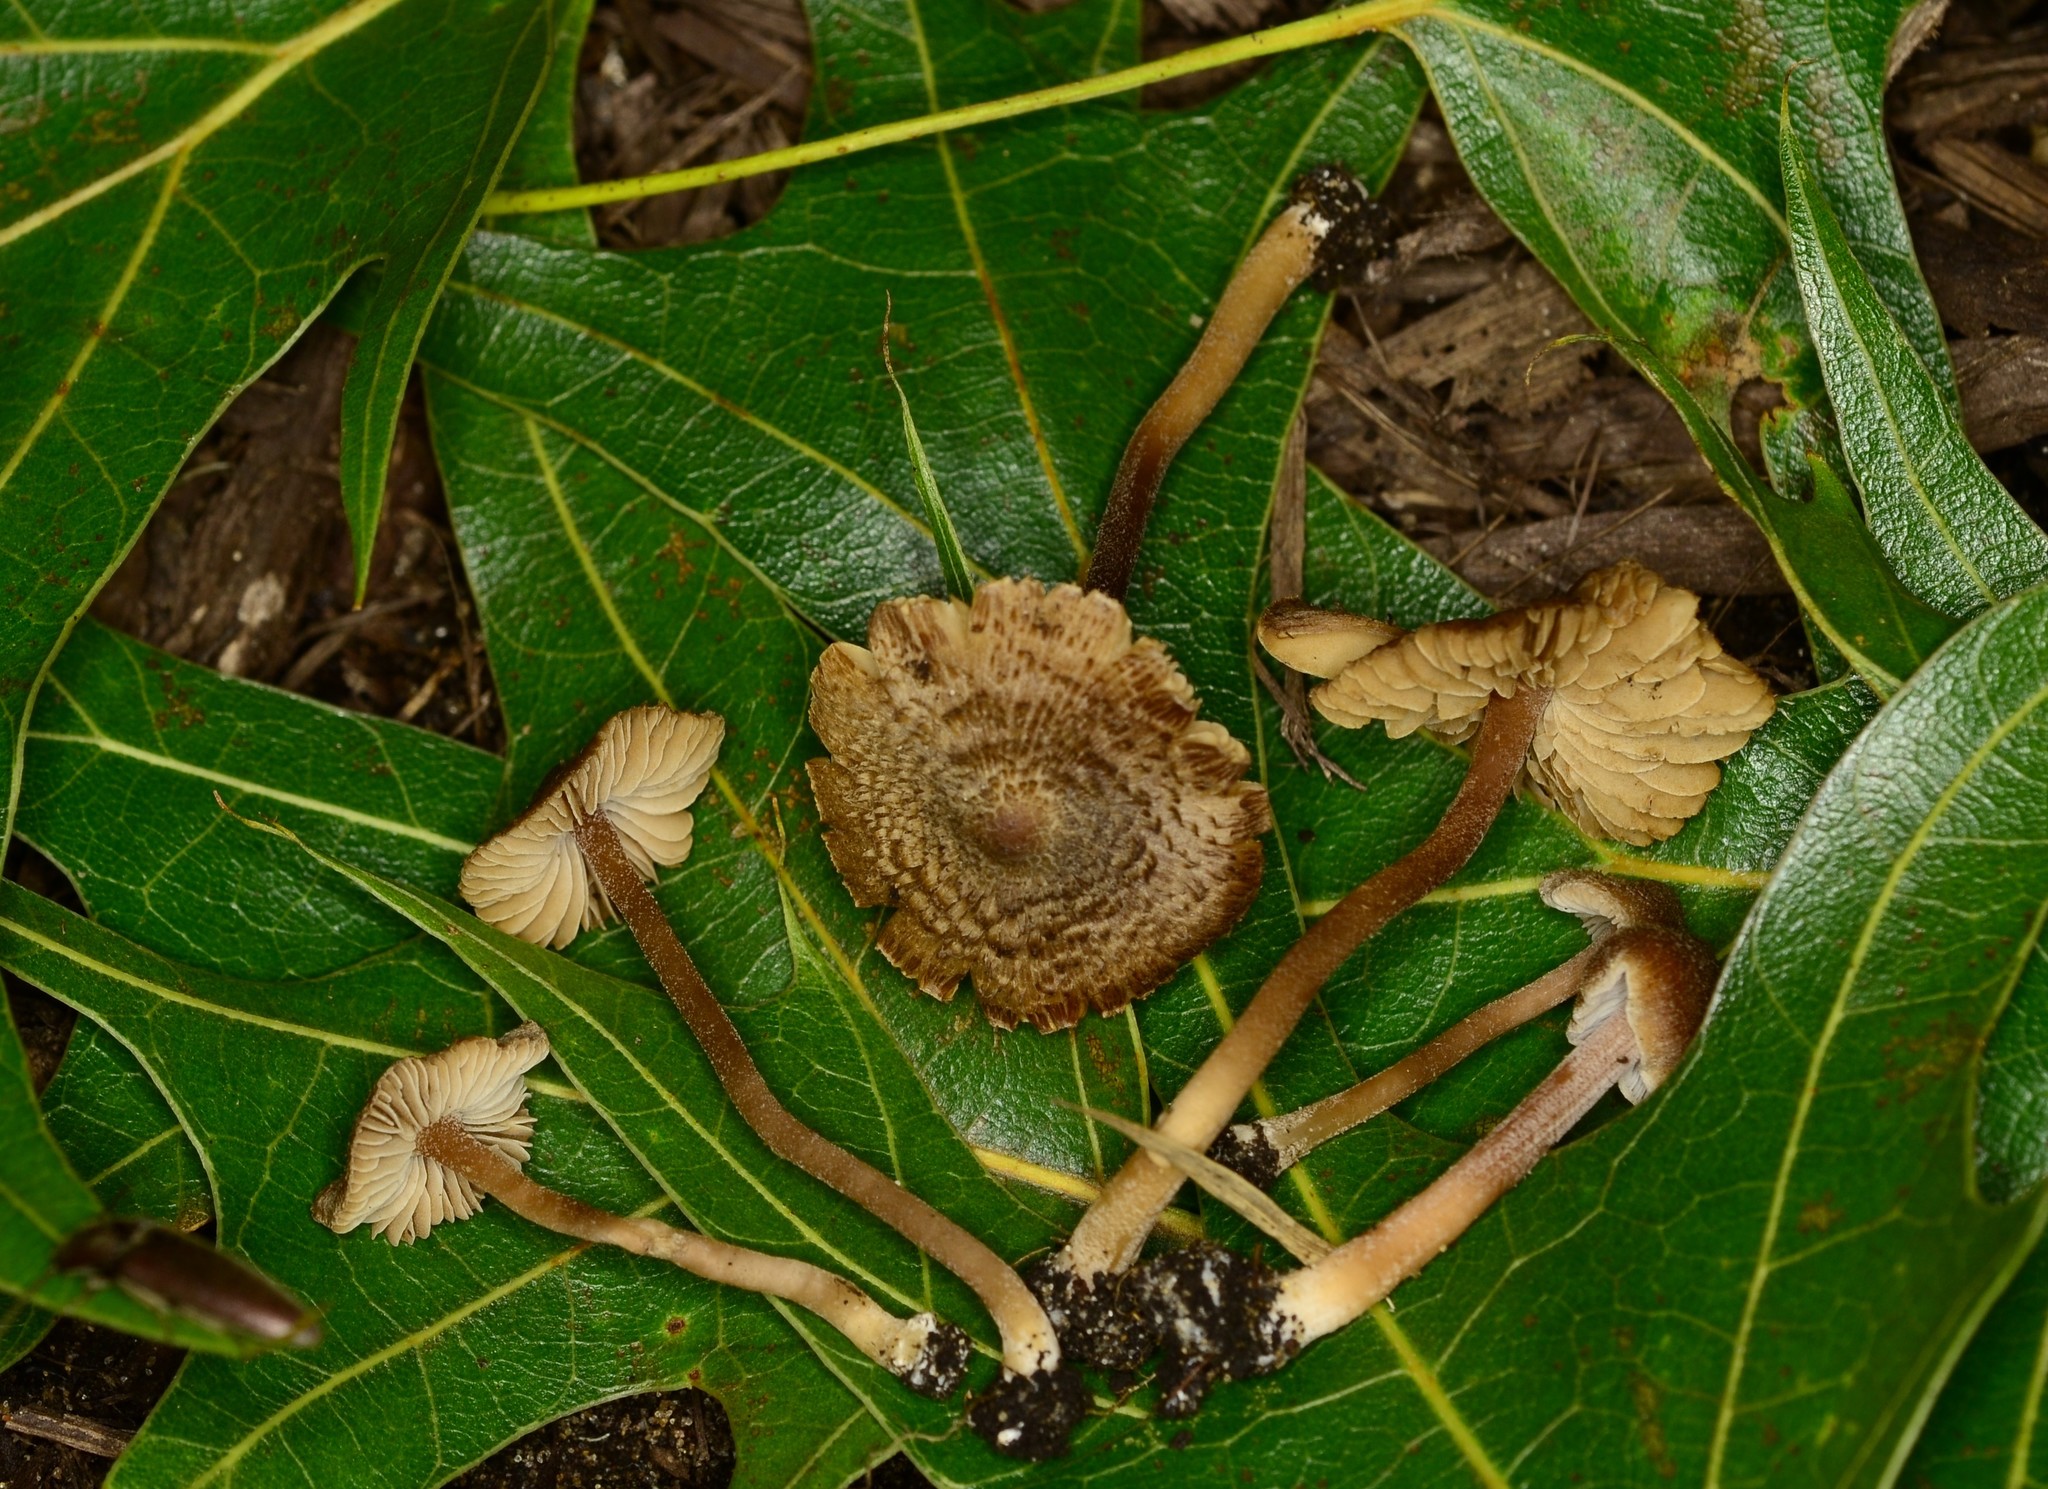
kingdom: Fungi
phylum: Basidiomycota
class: Agaricomycetes
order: Agaricales
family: Inocybaceae
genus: Inocybe
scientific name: Inocybe subfulva
